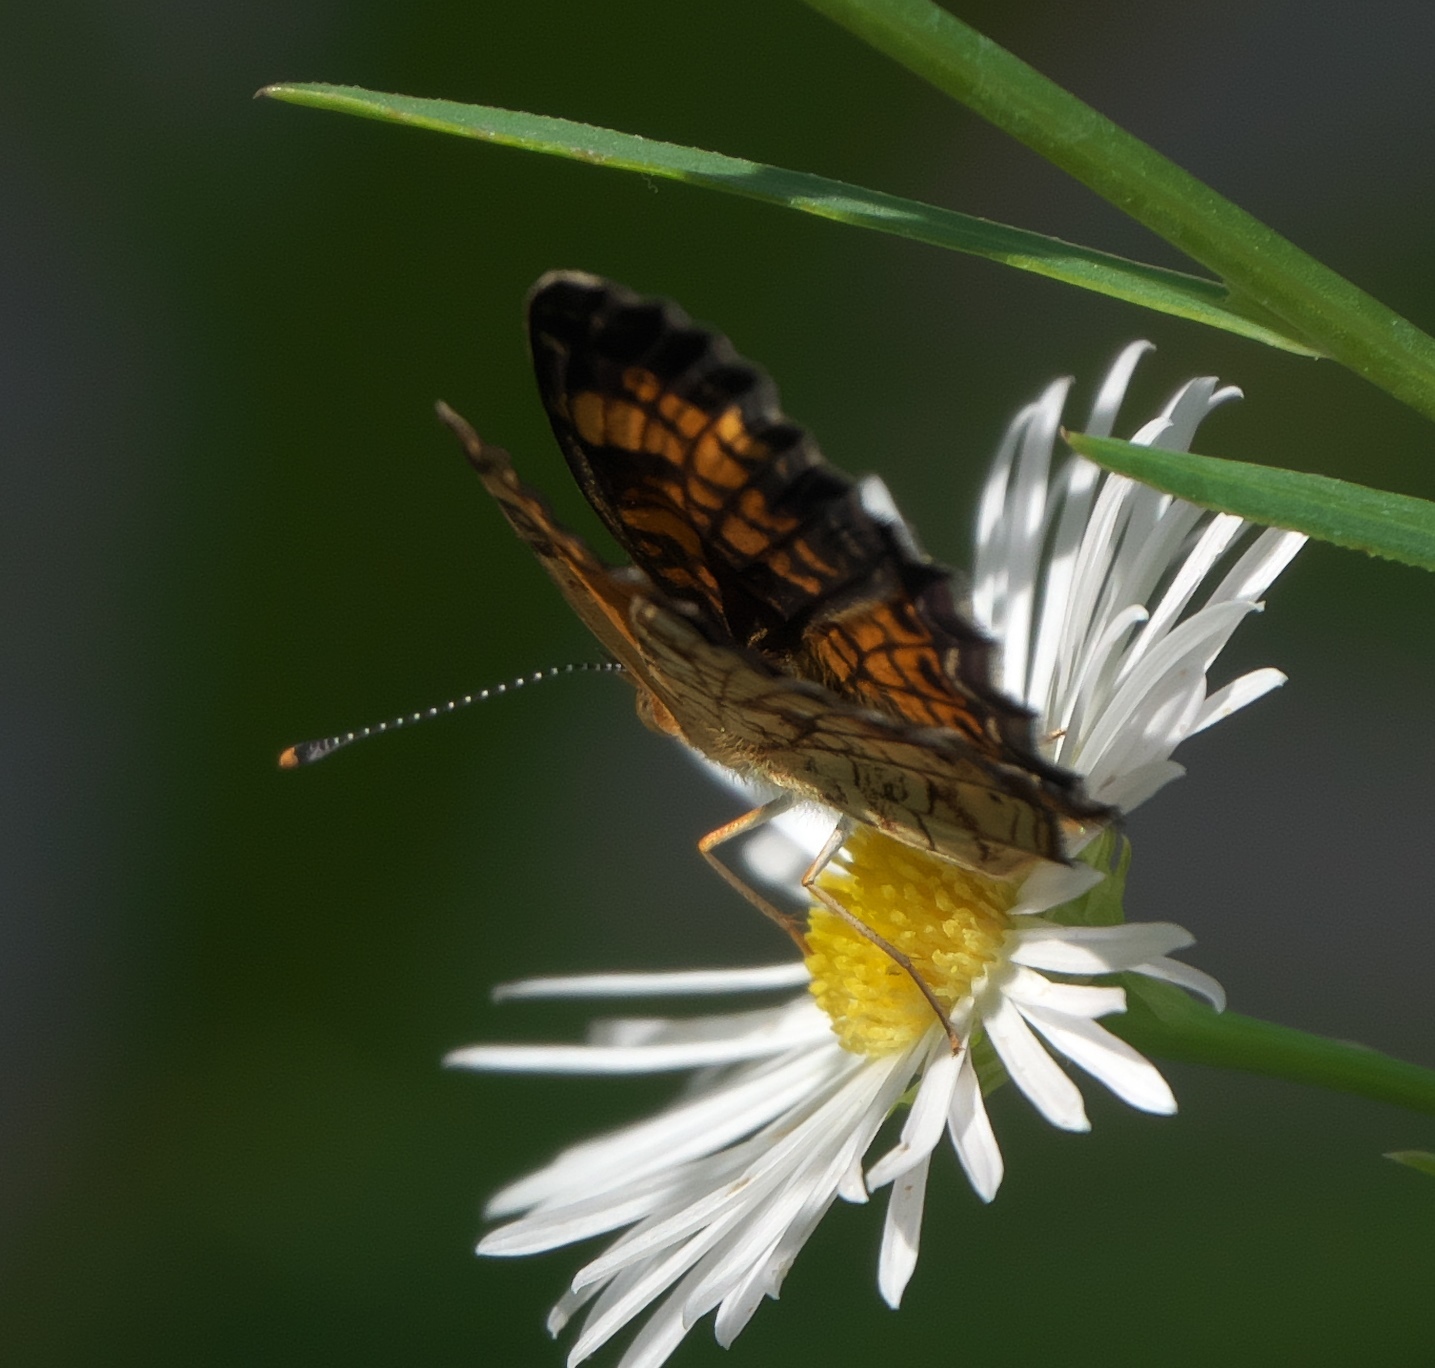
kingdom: Animalia
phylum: Arthropoda
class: Insecta
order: Lepidoptera
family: Nymphalidae
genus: Phyciodes
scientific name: Phyciodes tharos
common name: Pearl crescent
